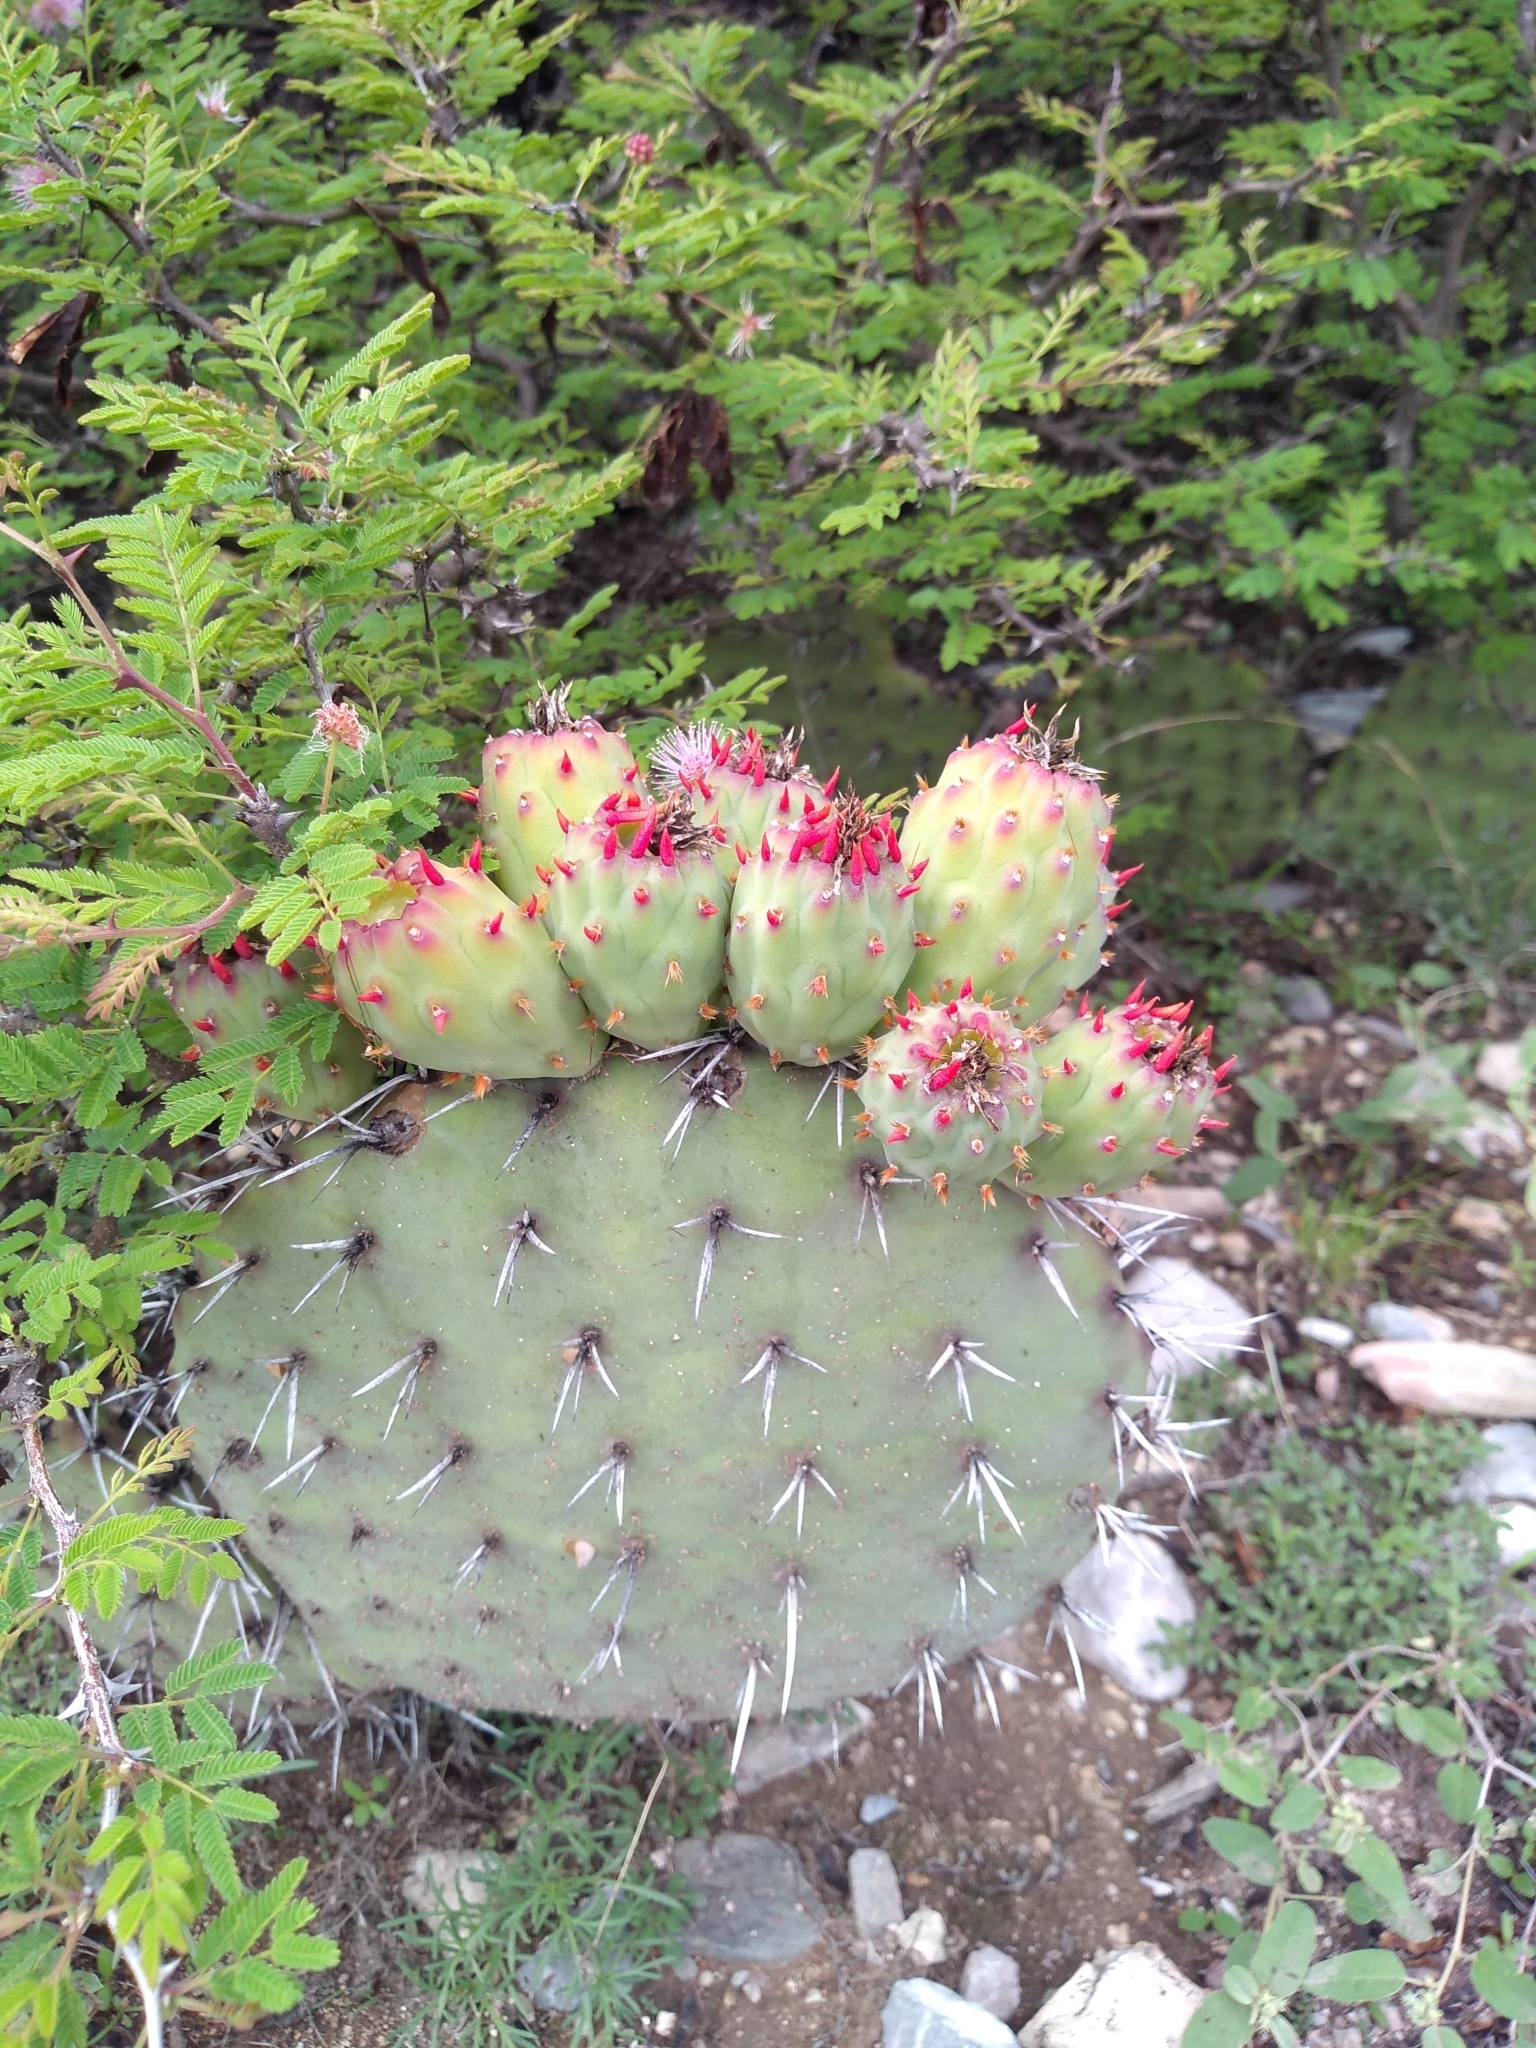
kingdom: Plantae
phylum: Tracheophyta
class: Magnoliopsida
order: Caryophyllales
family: Cactaceae
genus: Opuntia
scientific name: Opuntia stenopetala
